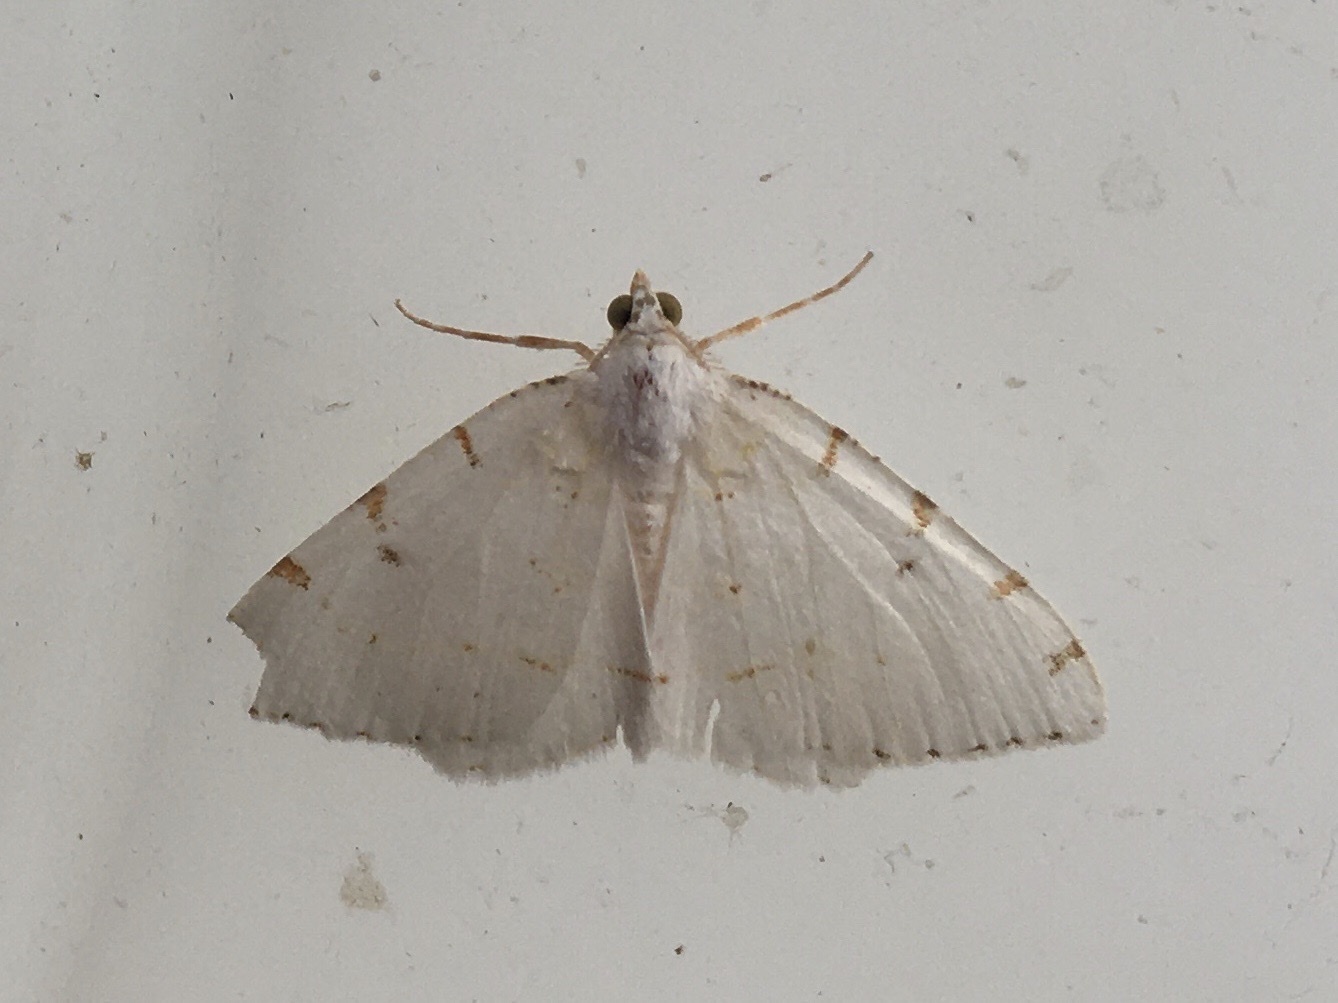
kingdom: Animalia
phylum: Arthropoda
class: Insecta
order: Lepidoptera
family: Geometridae
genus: Macaria
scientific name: Macaria pustularia
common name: Lesser maple spanworm moth
